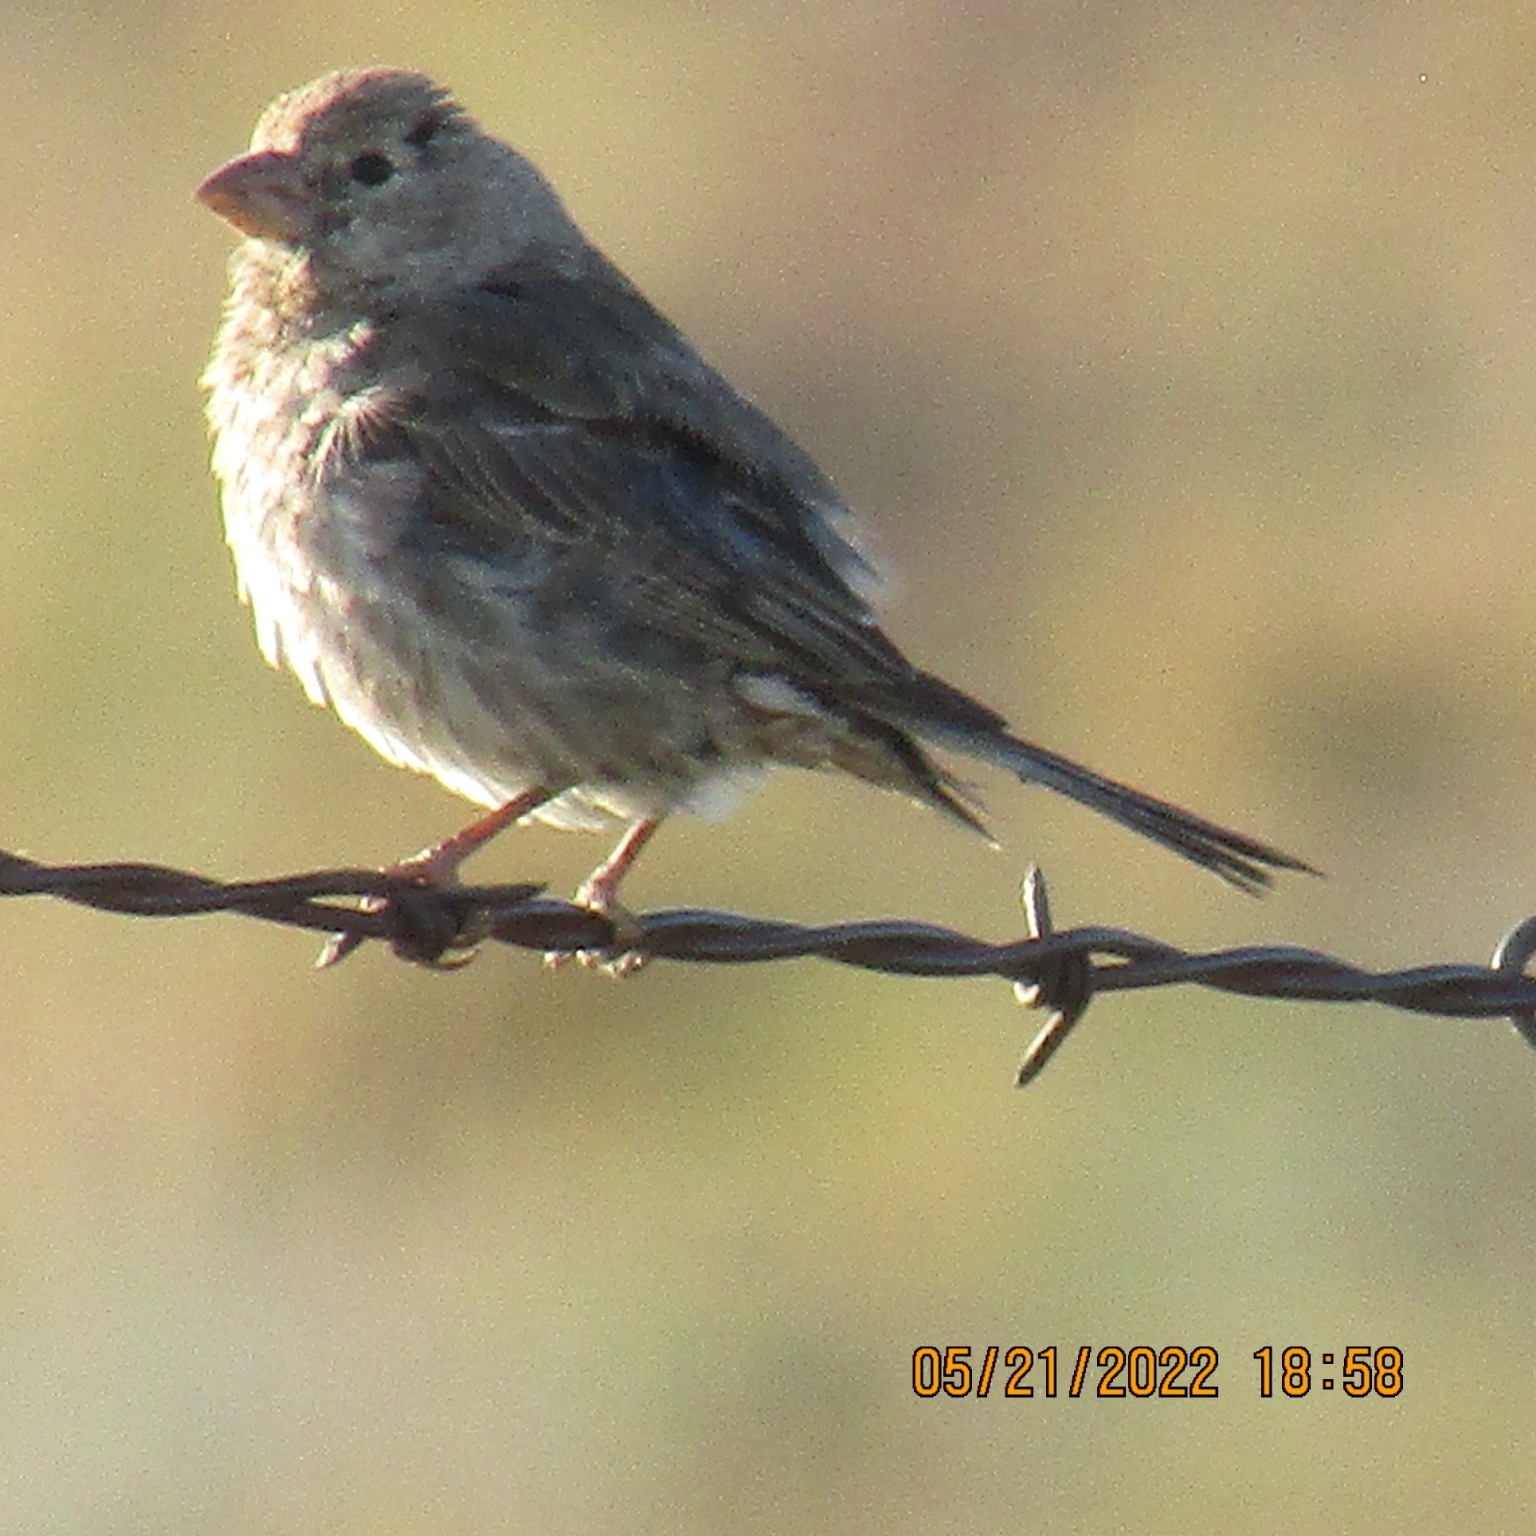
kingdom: Animalia
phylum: Chordata
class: Aves
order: Passeriformes
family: Fringillidae
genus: Haemorhous
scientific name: Haemorhous mexicanus
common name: House finch
